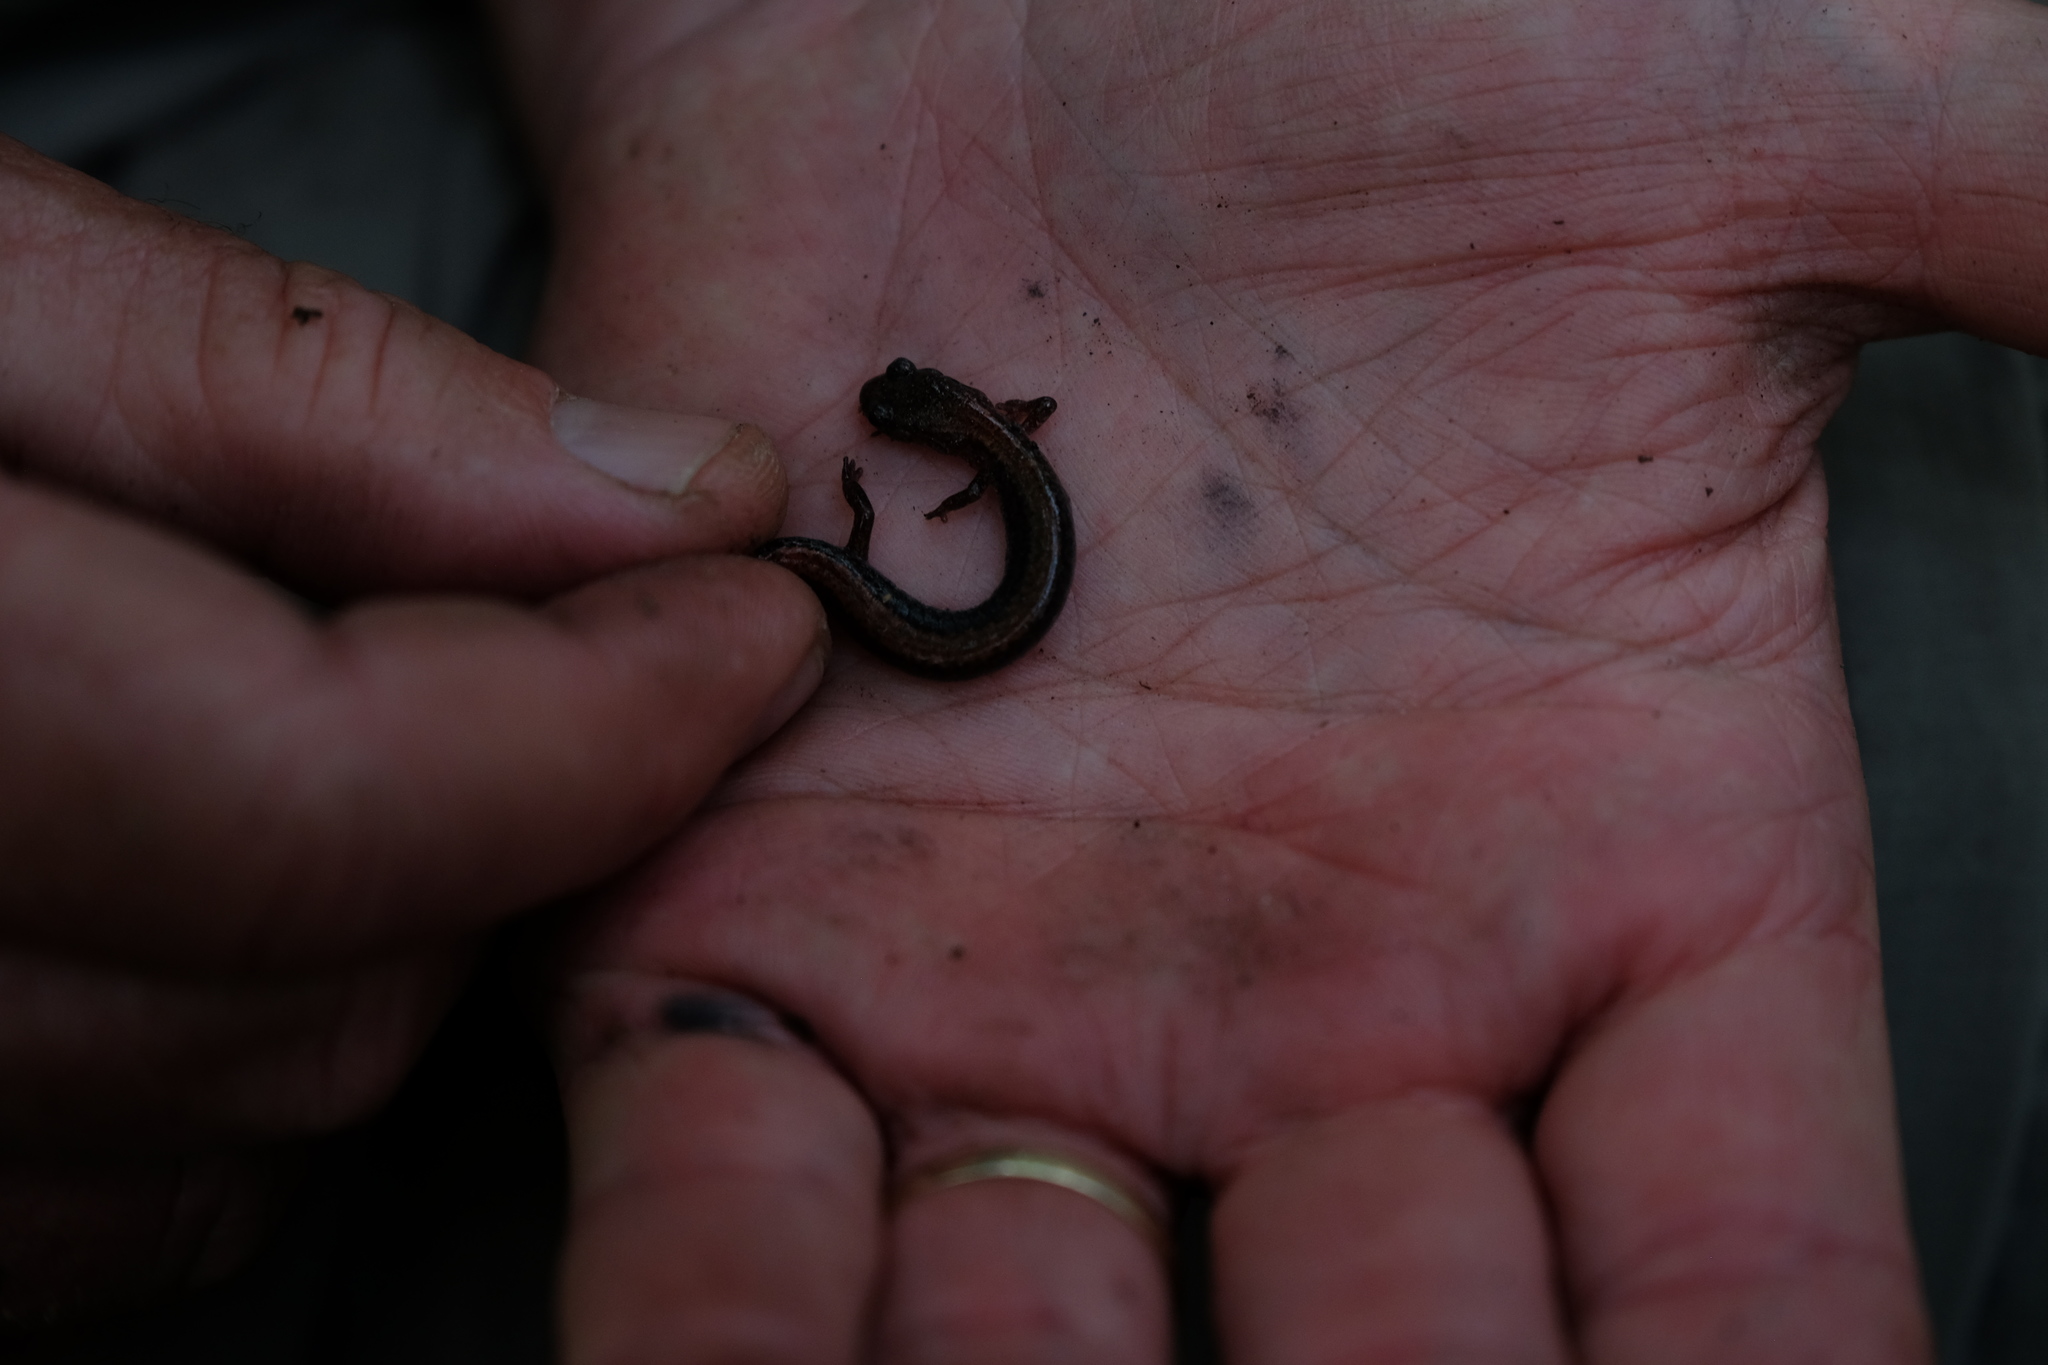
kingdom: Animalia
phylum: Chordata
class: Amphibia
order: Caudata
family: Plethodontidae
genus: Plethodon
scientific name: Plethodon cinereus
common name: Redback salamander
